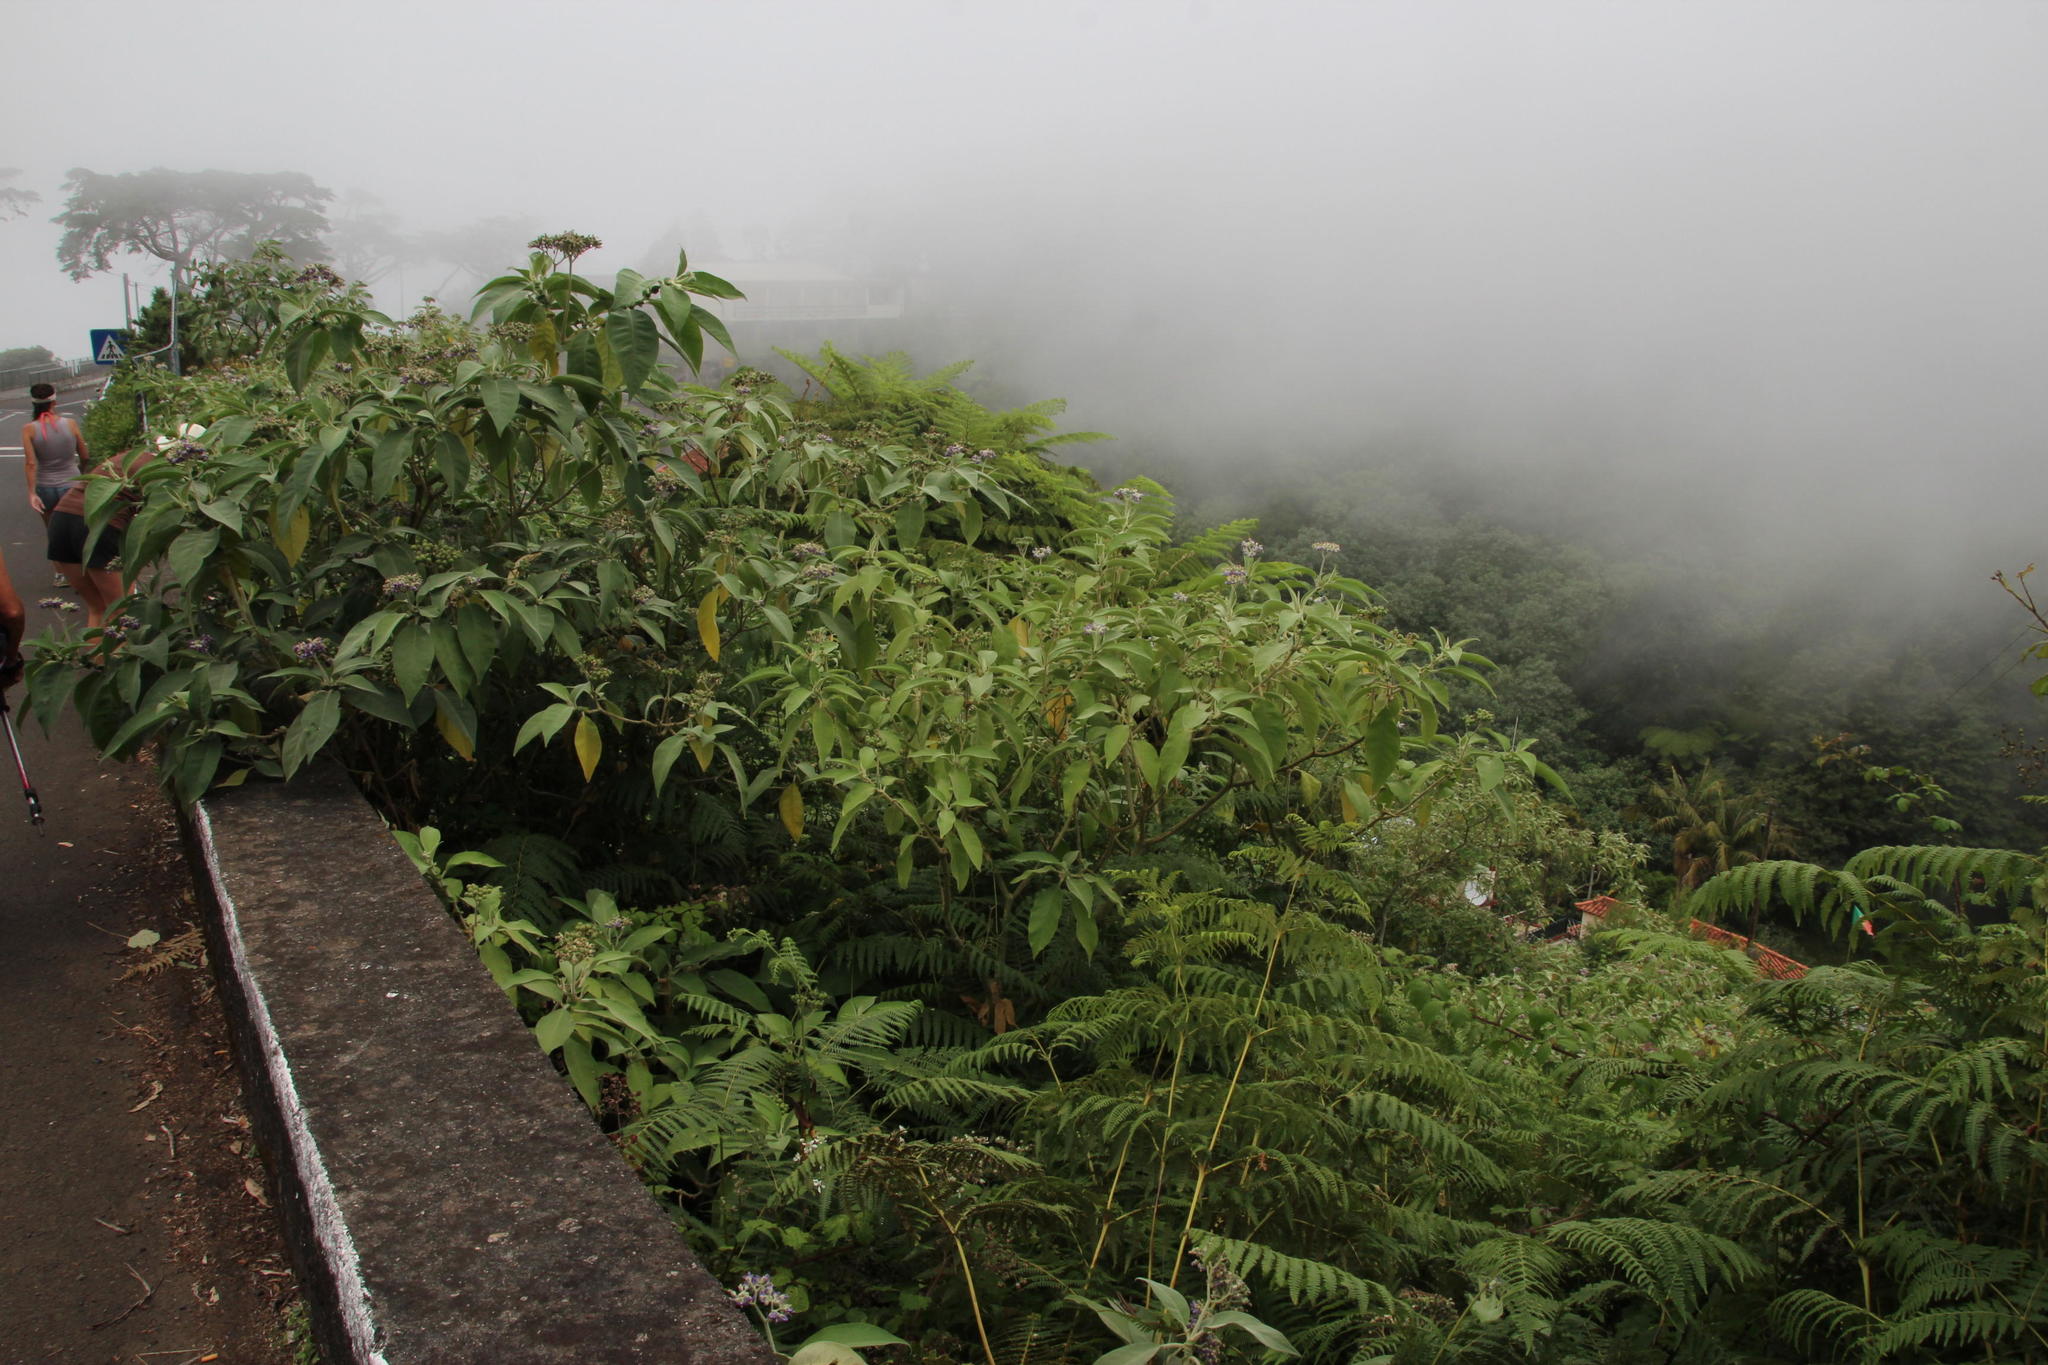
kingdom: Plantae
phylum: Tracheophyta
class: Magnoliopsida
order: Solanales
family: Solanaceae
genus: Solanum
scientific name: Solanum mauritianum
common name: Earleaf nightshade
